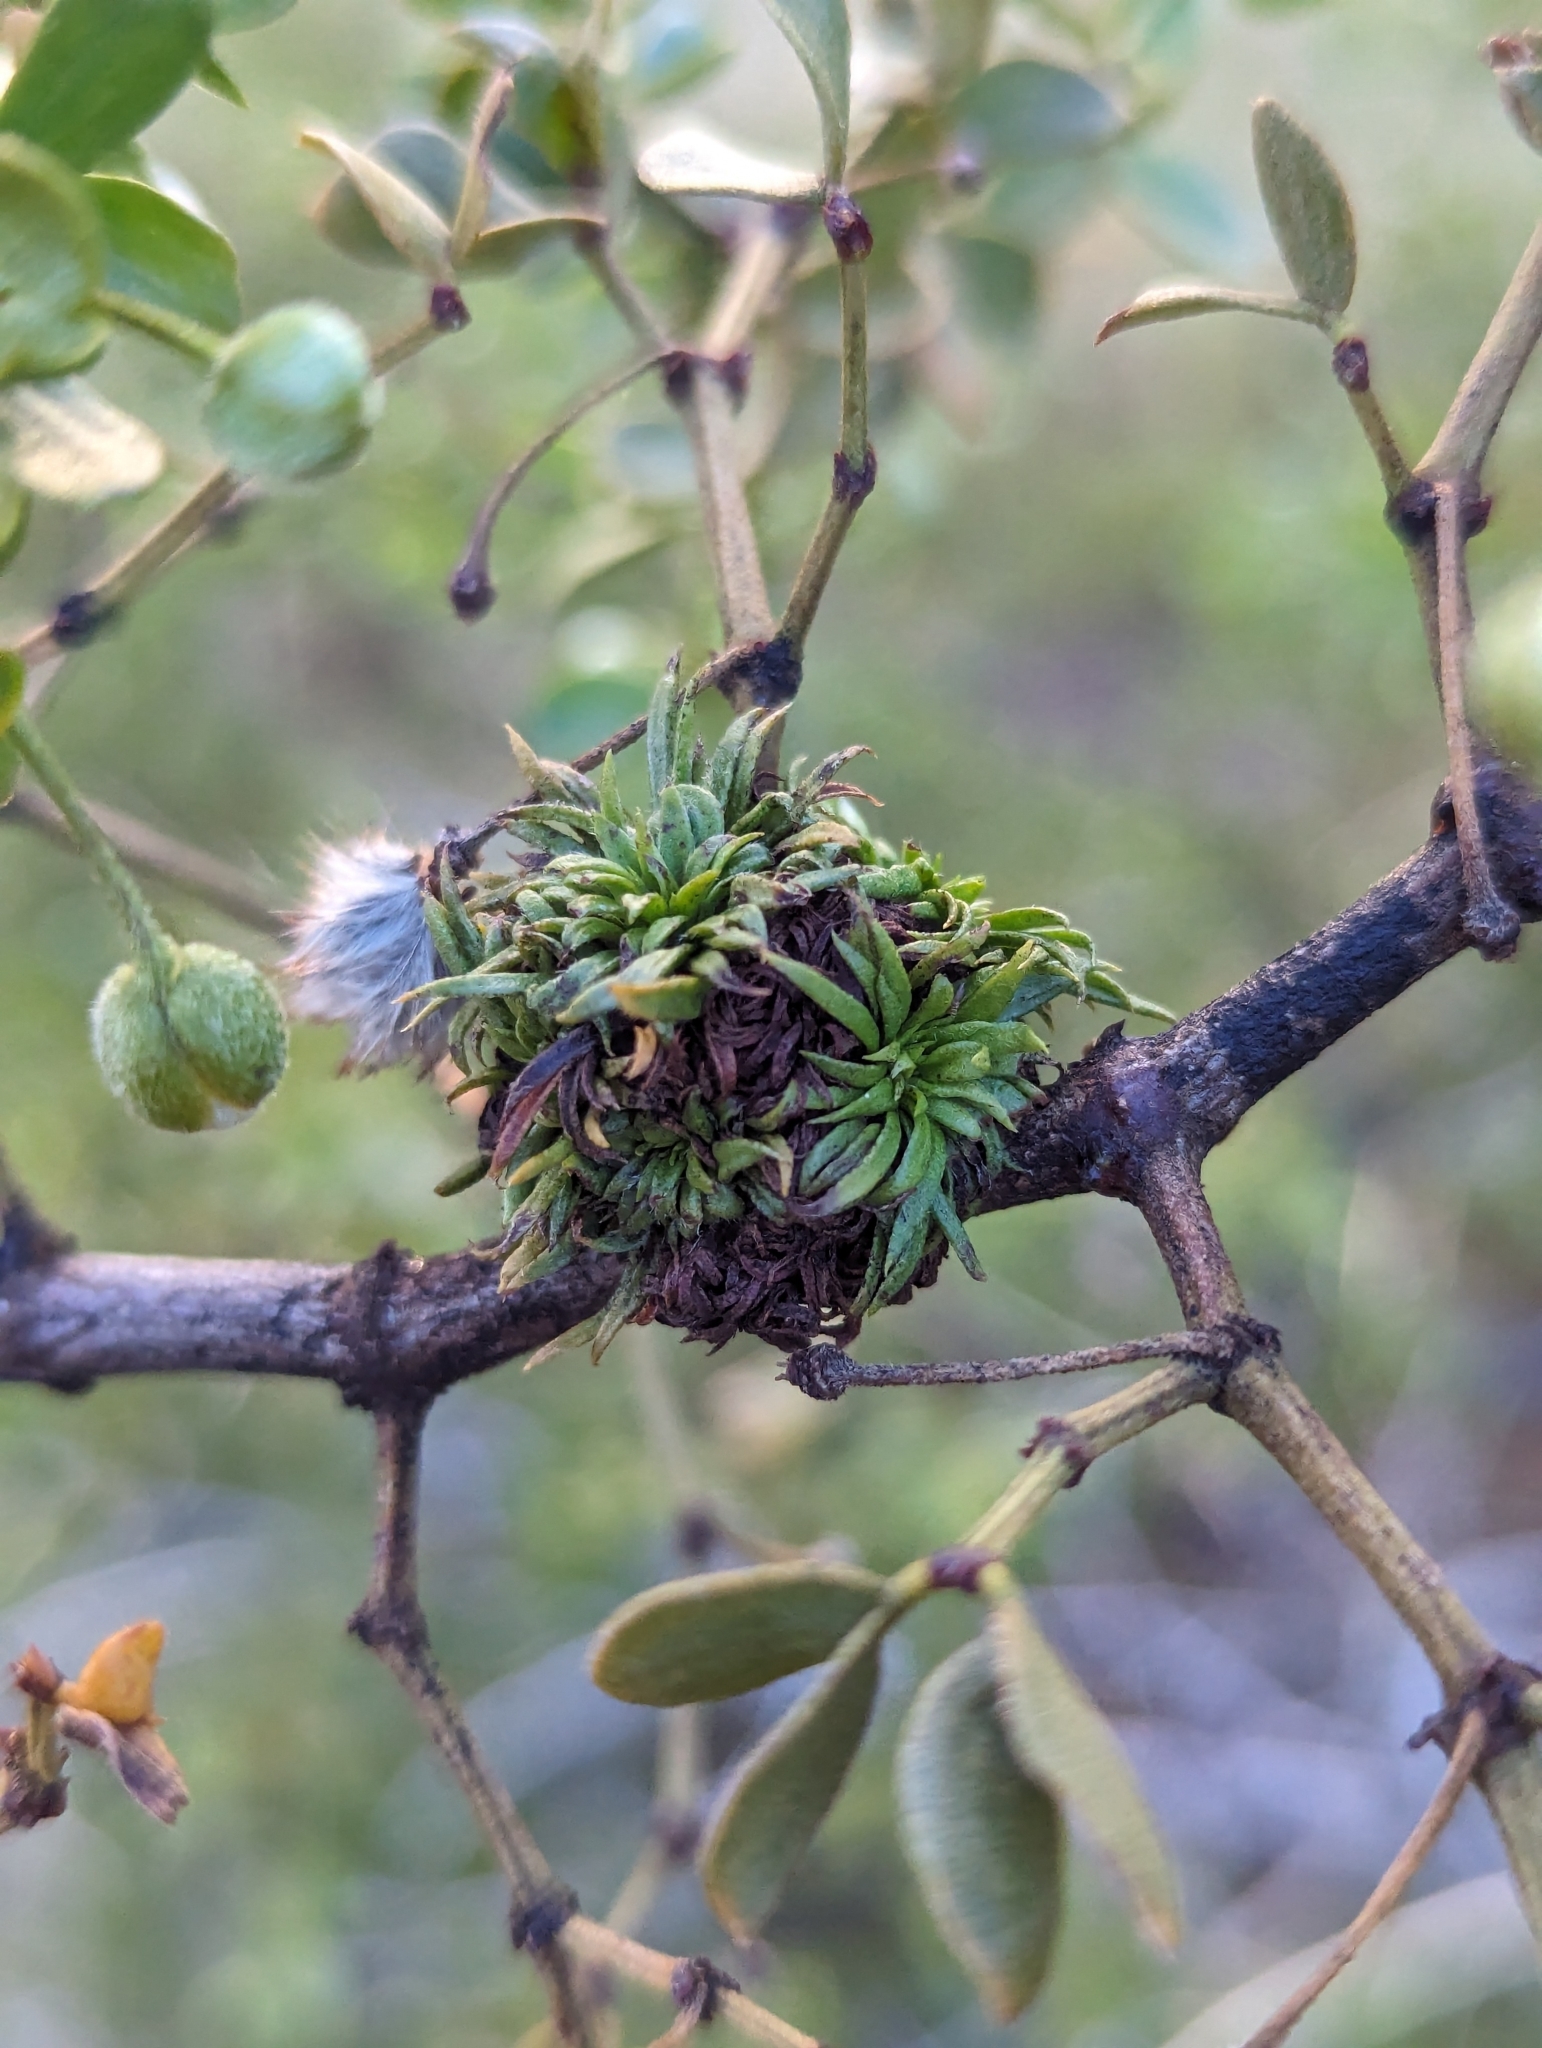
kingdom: Animalia
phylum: Arthropoda
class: Insecta
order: Diptera
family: Cecidomyiidae
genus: Asphondylia
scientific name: Asphondylia auripila
